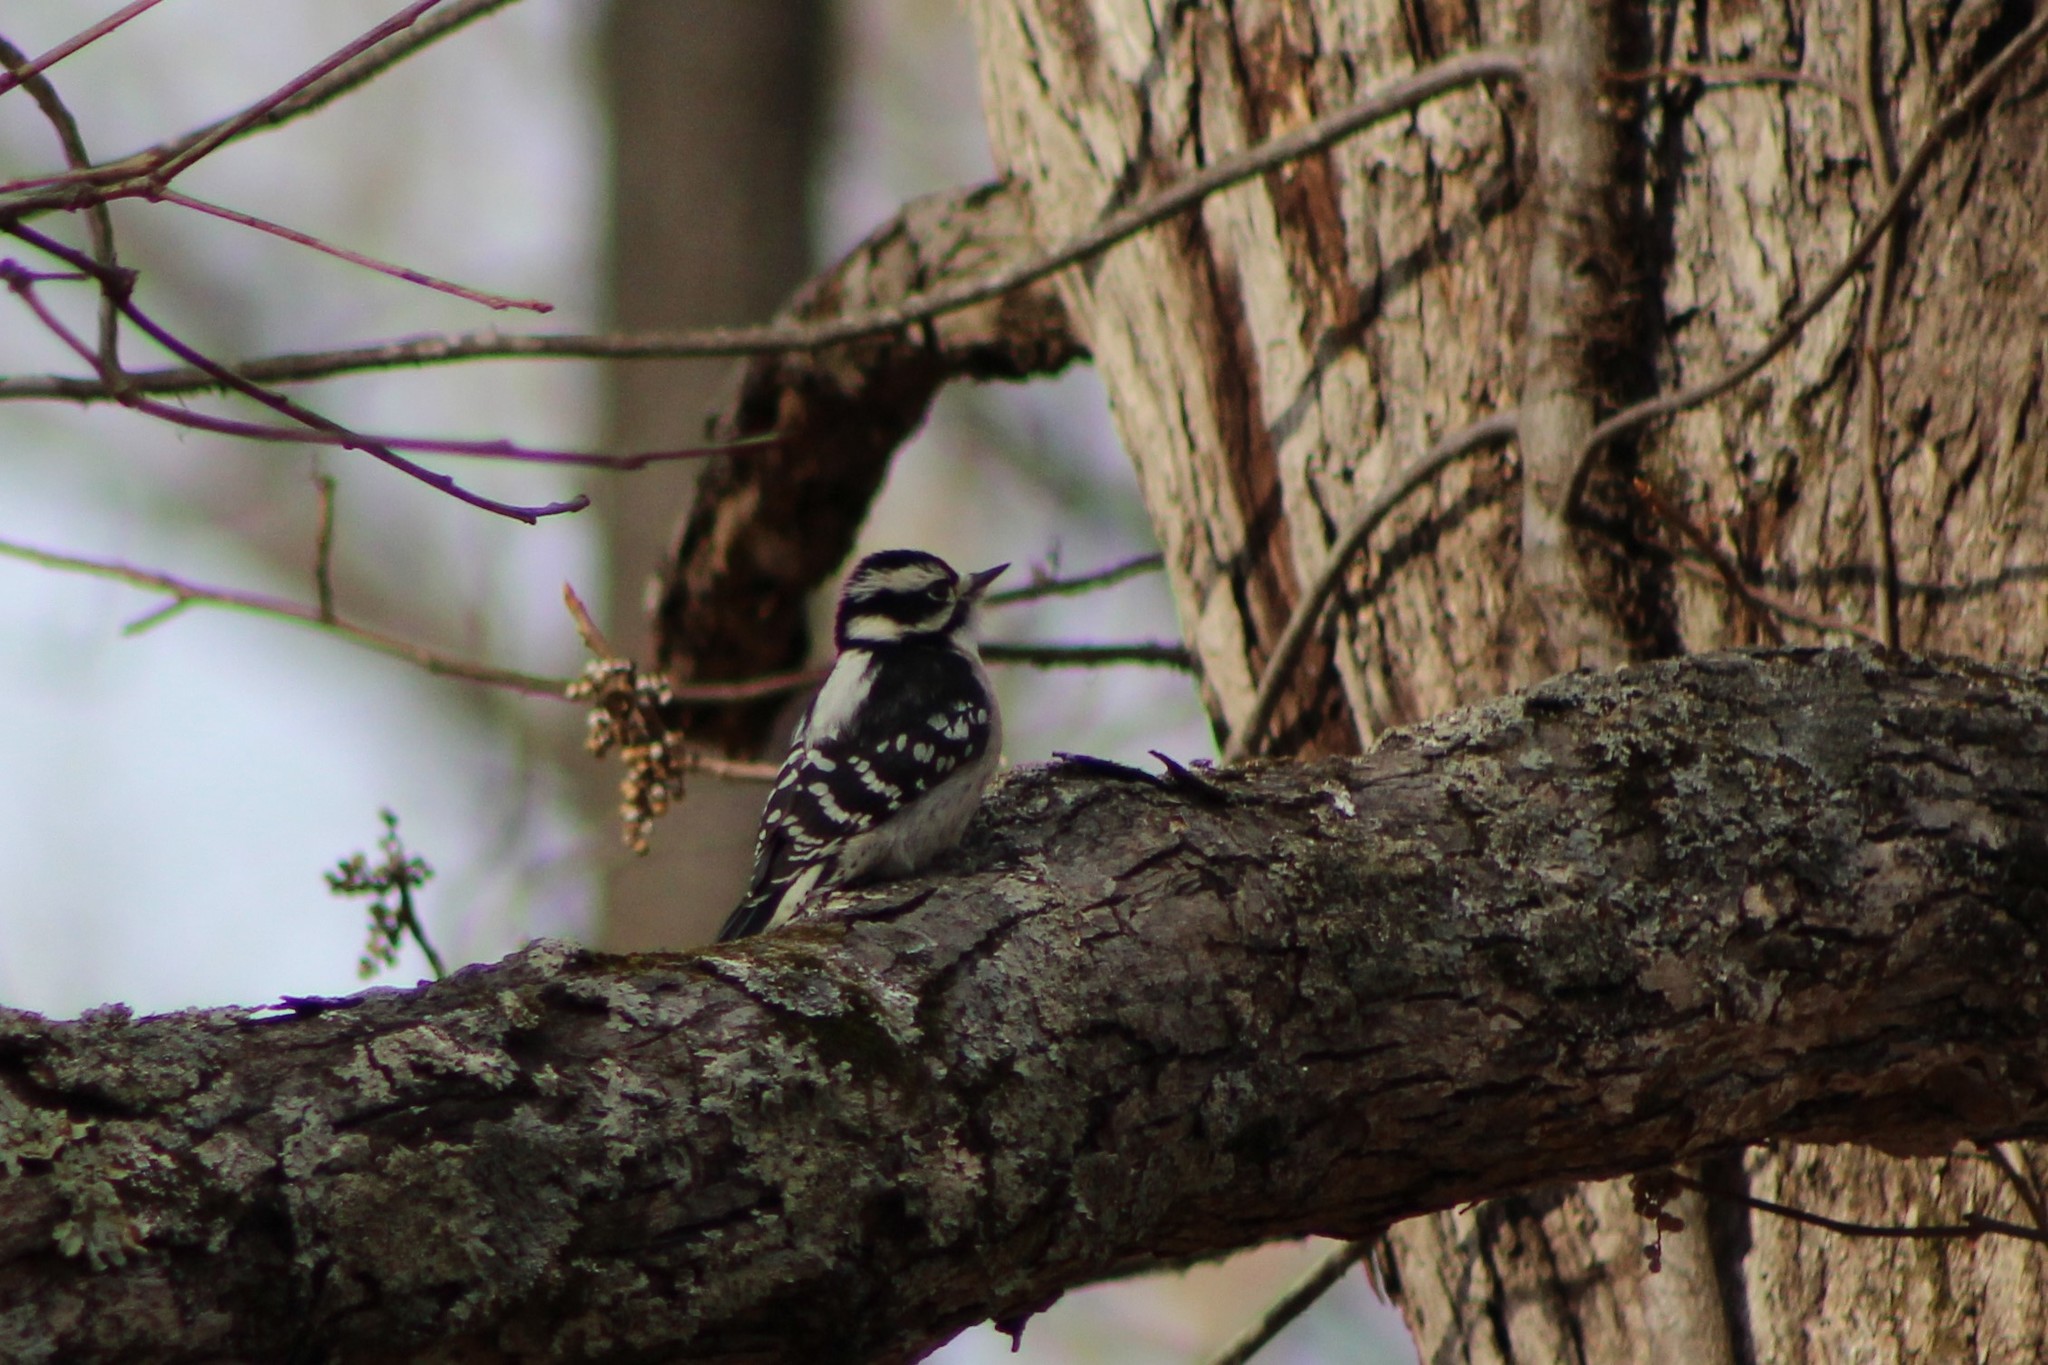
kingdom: Animalia
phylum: Chordata
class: Aves
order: Piciformes
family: Picidae
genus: Dryobates
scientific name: Dryobates pubescens
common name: Downy woodpecker
